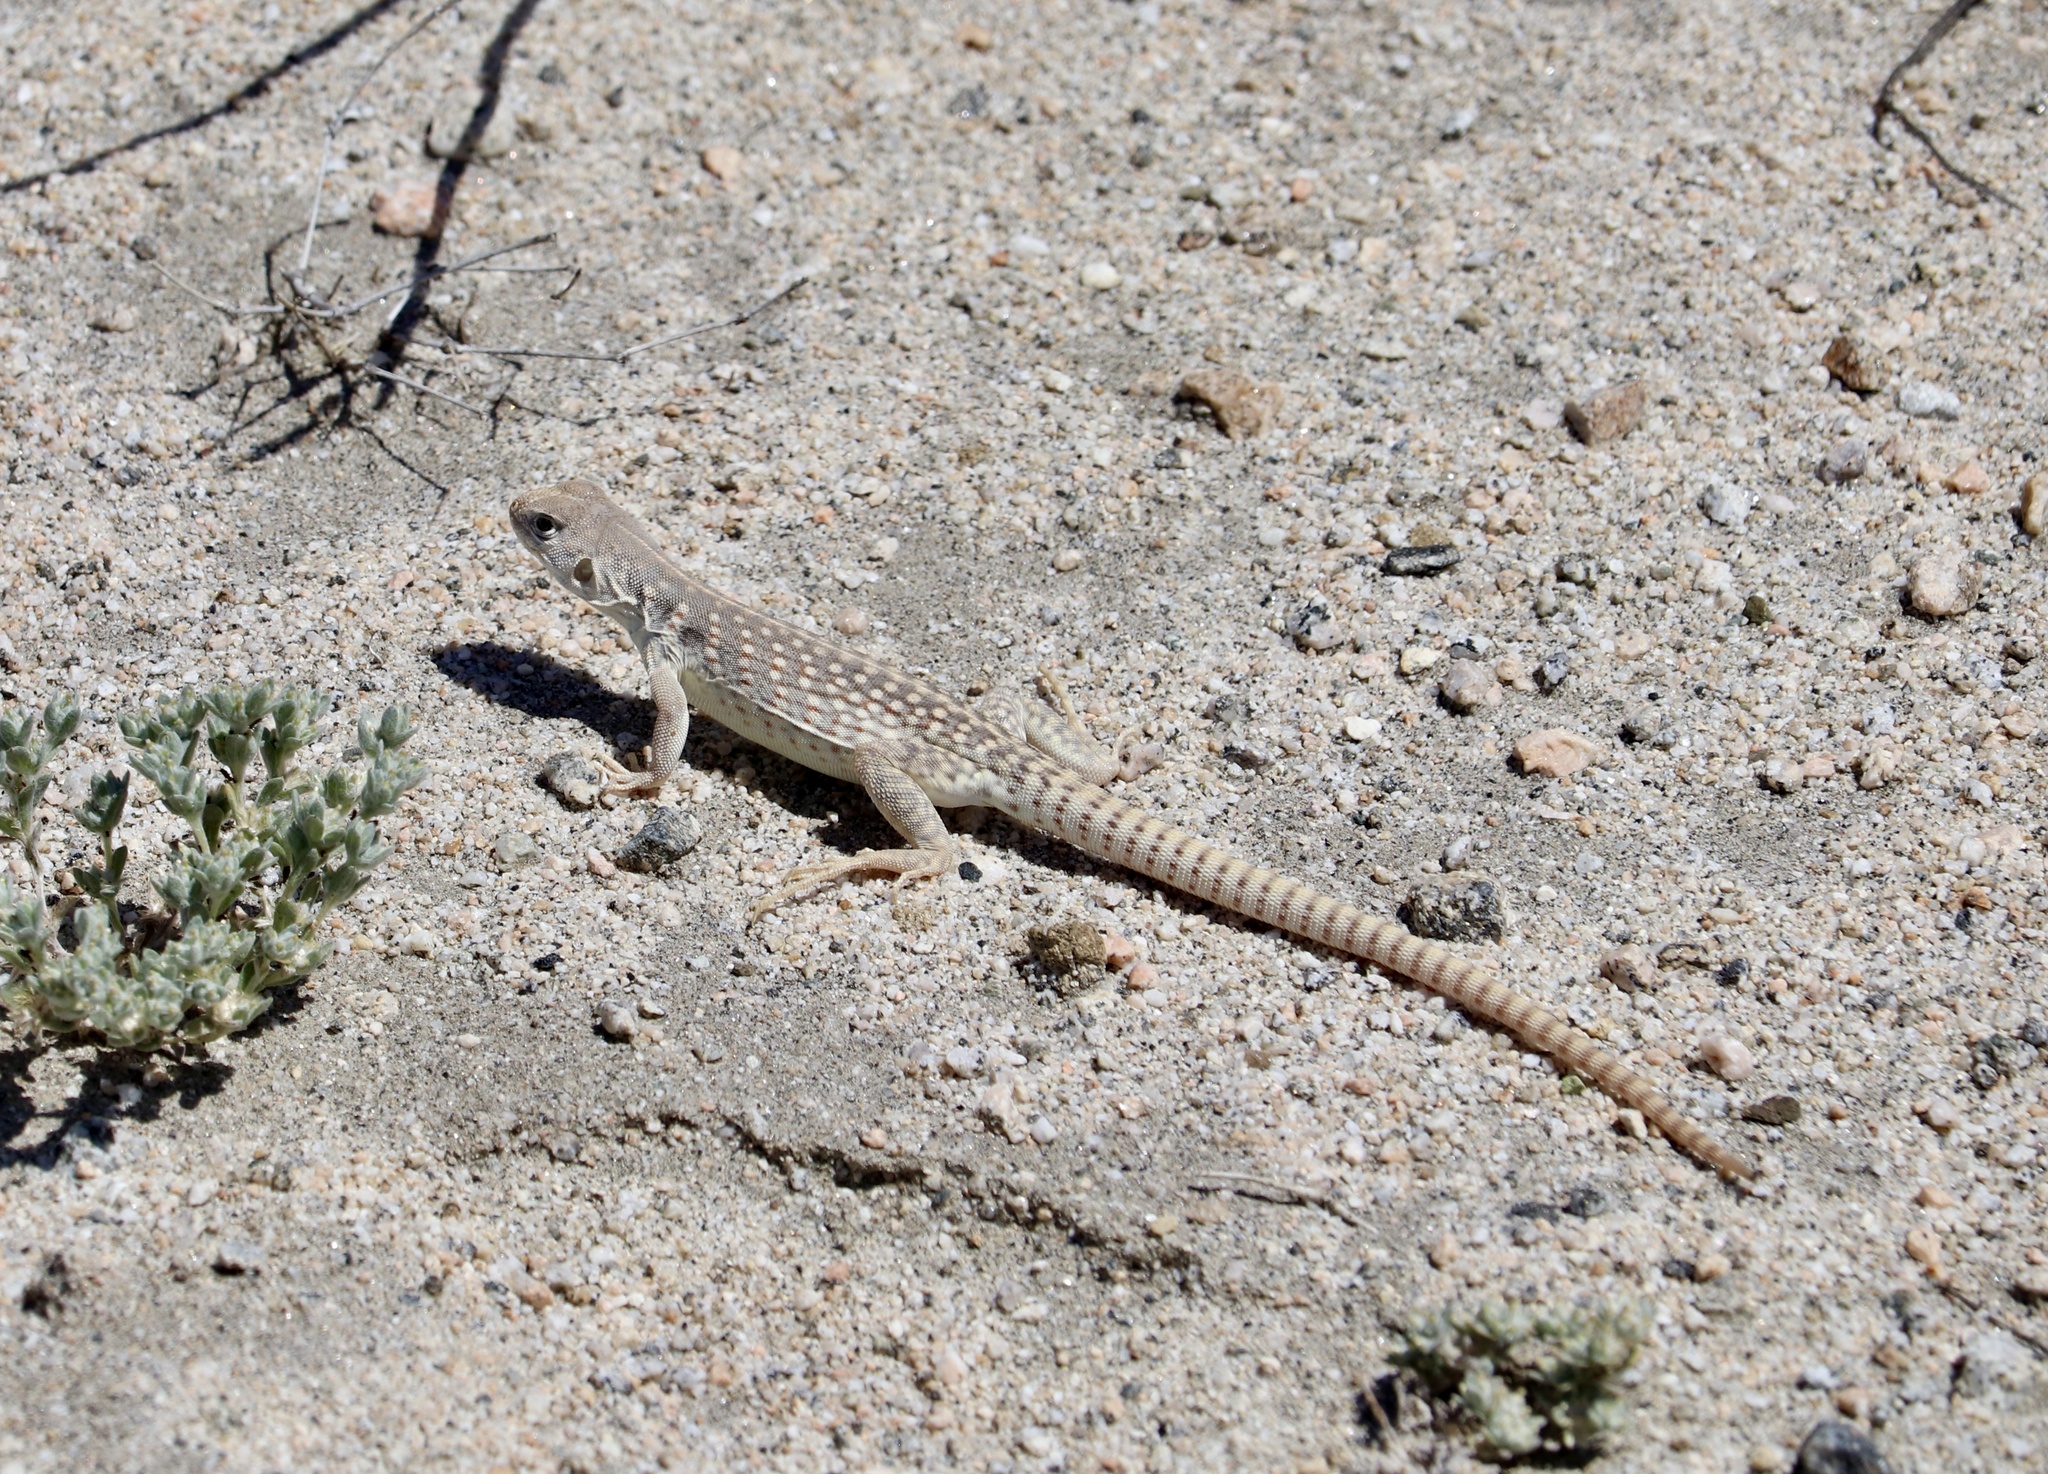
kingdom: Animalia
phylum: Chordata
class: Squamata
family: Iguanidae
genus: Dipsosaurus
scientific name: Dipsosaurus dorsalis
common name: Desert iguana
